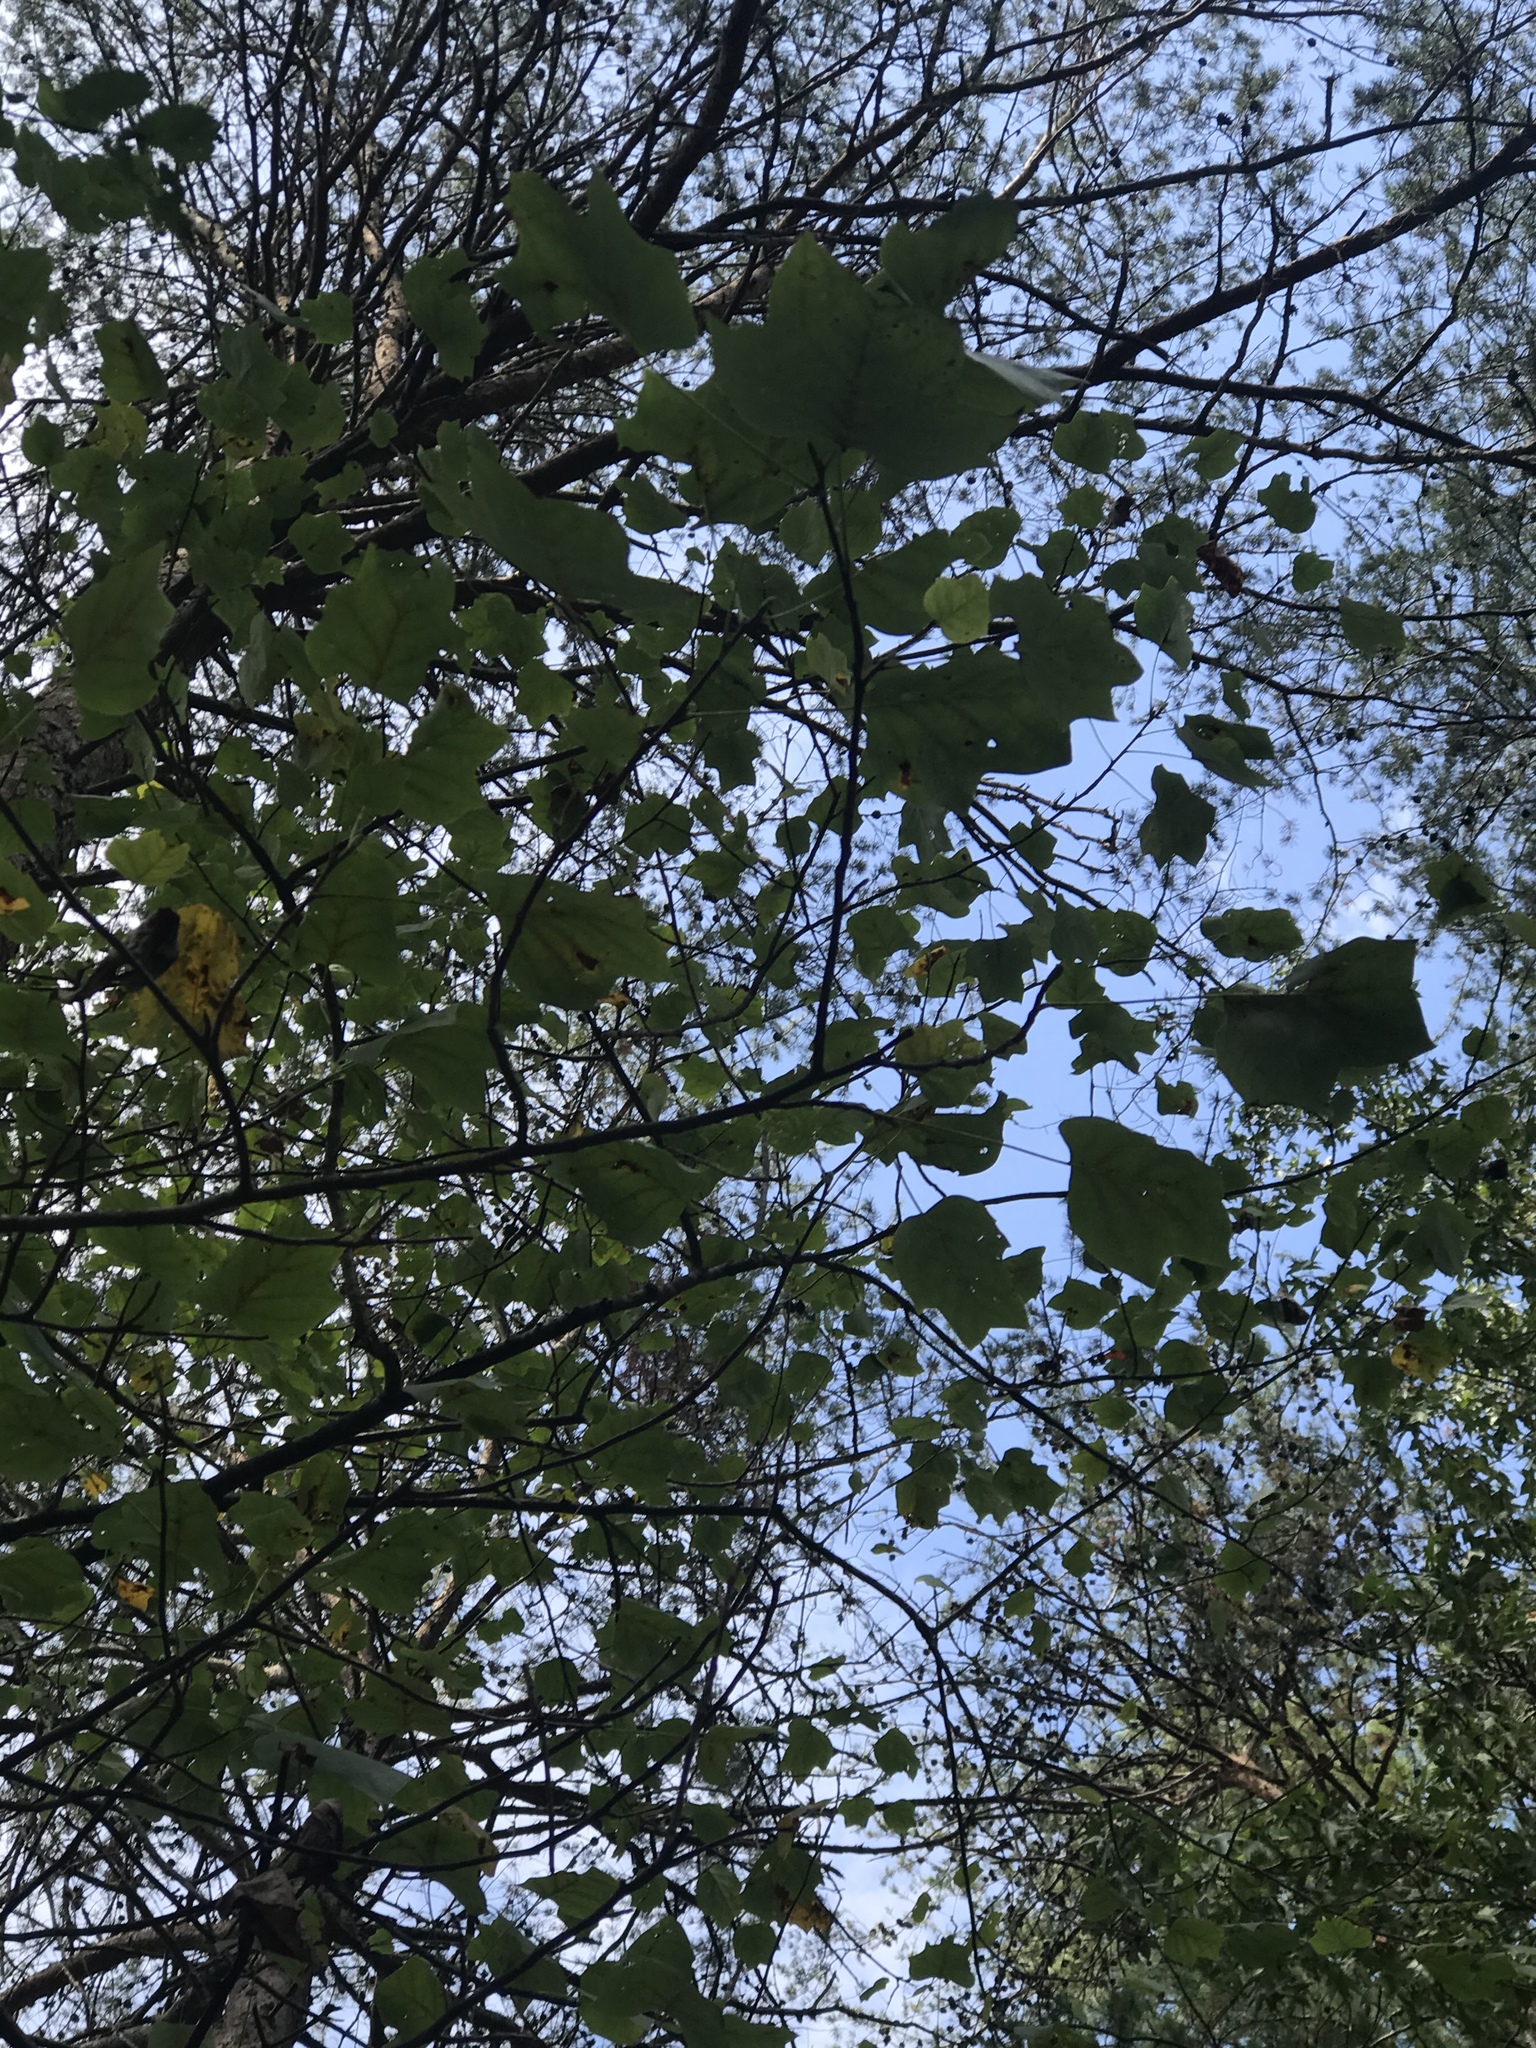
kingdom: Plantae
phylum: Tracheophyta
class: Magnoliopsida
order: Magnoliales
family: Magnoliaceae
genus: Liriodendron
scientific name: Liriodendron tulipifera
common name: Tulip tree
